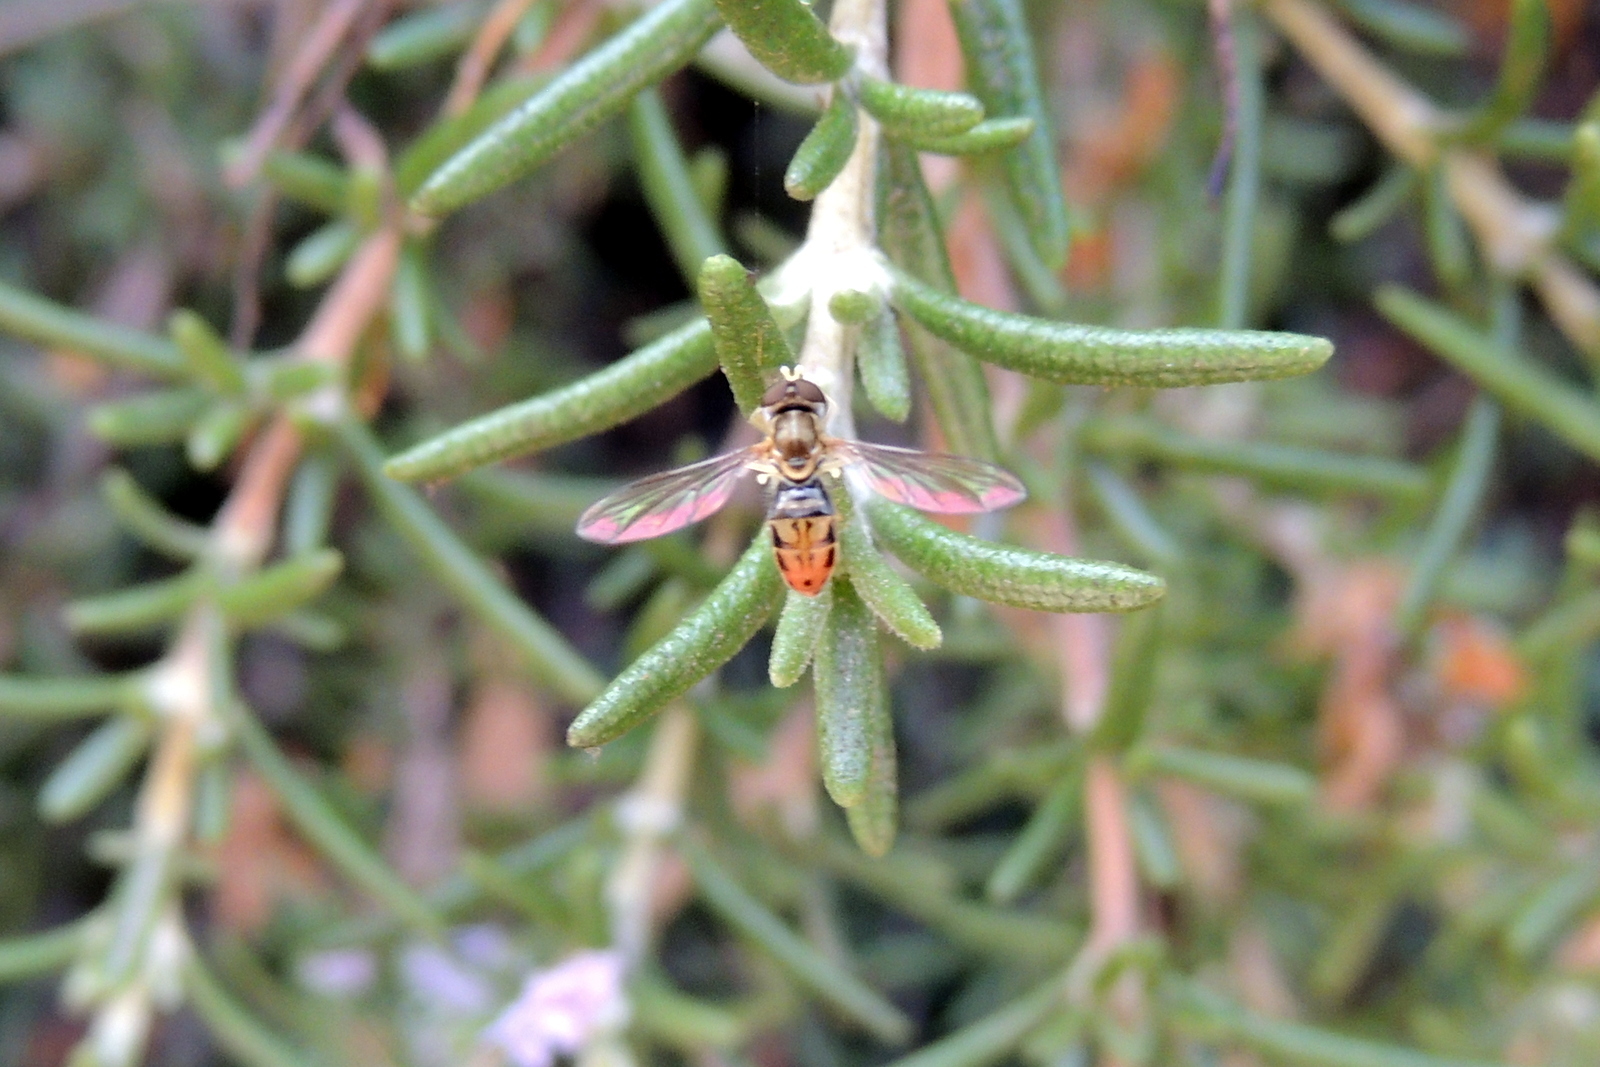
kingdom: Animalia
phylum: Arthropoda
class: Insecta
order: Diptera
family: Syrphidae
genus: Toxomerus
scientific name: Toxomerus marginatus
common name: Syrphid fly
